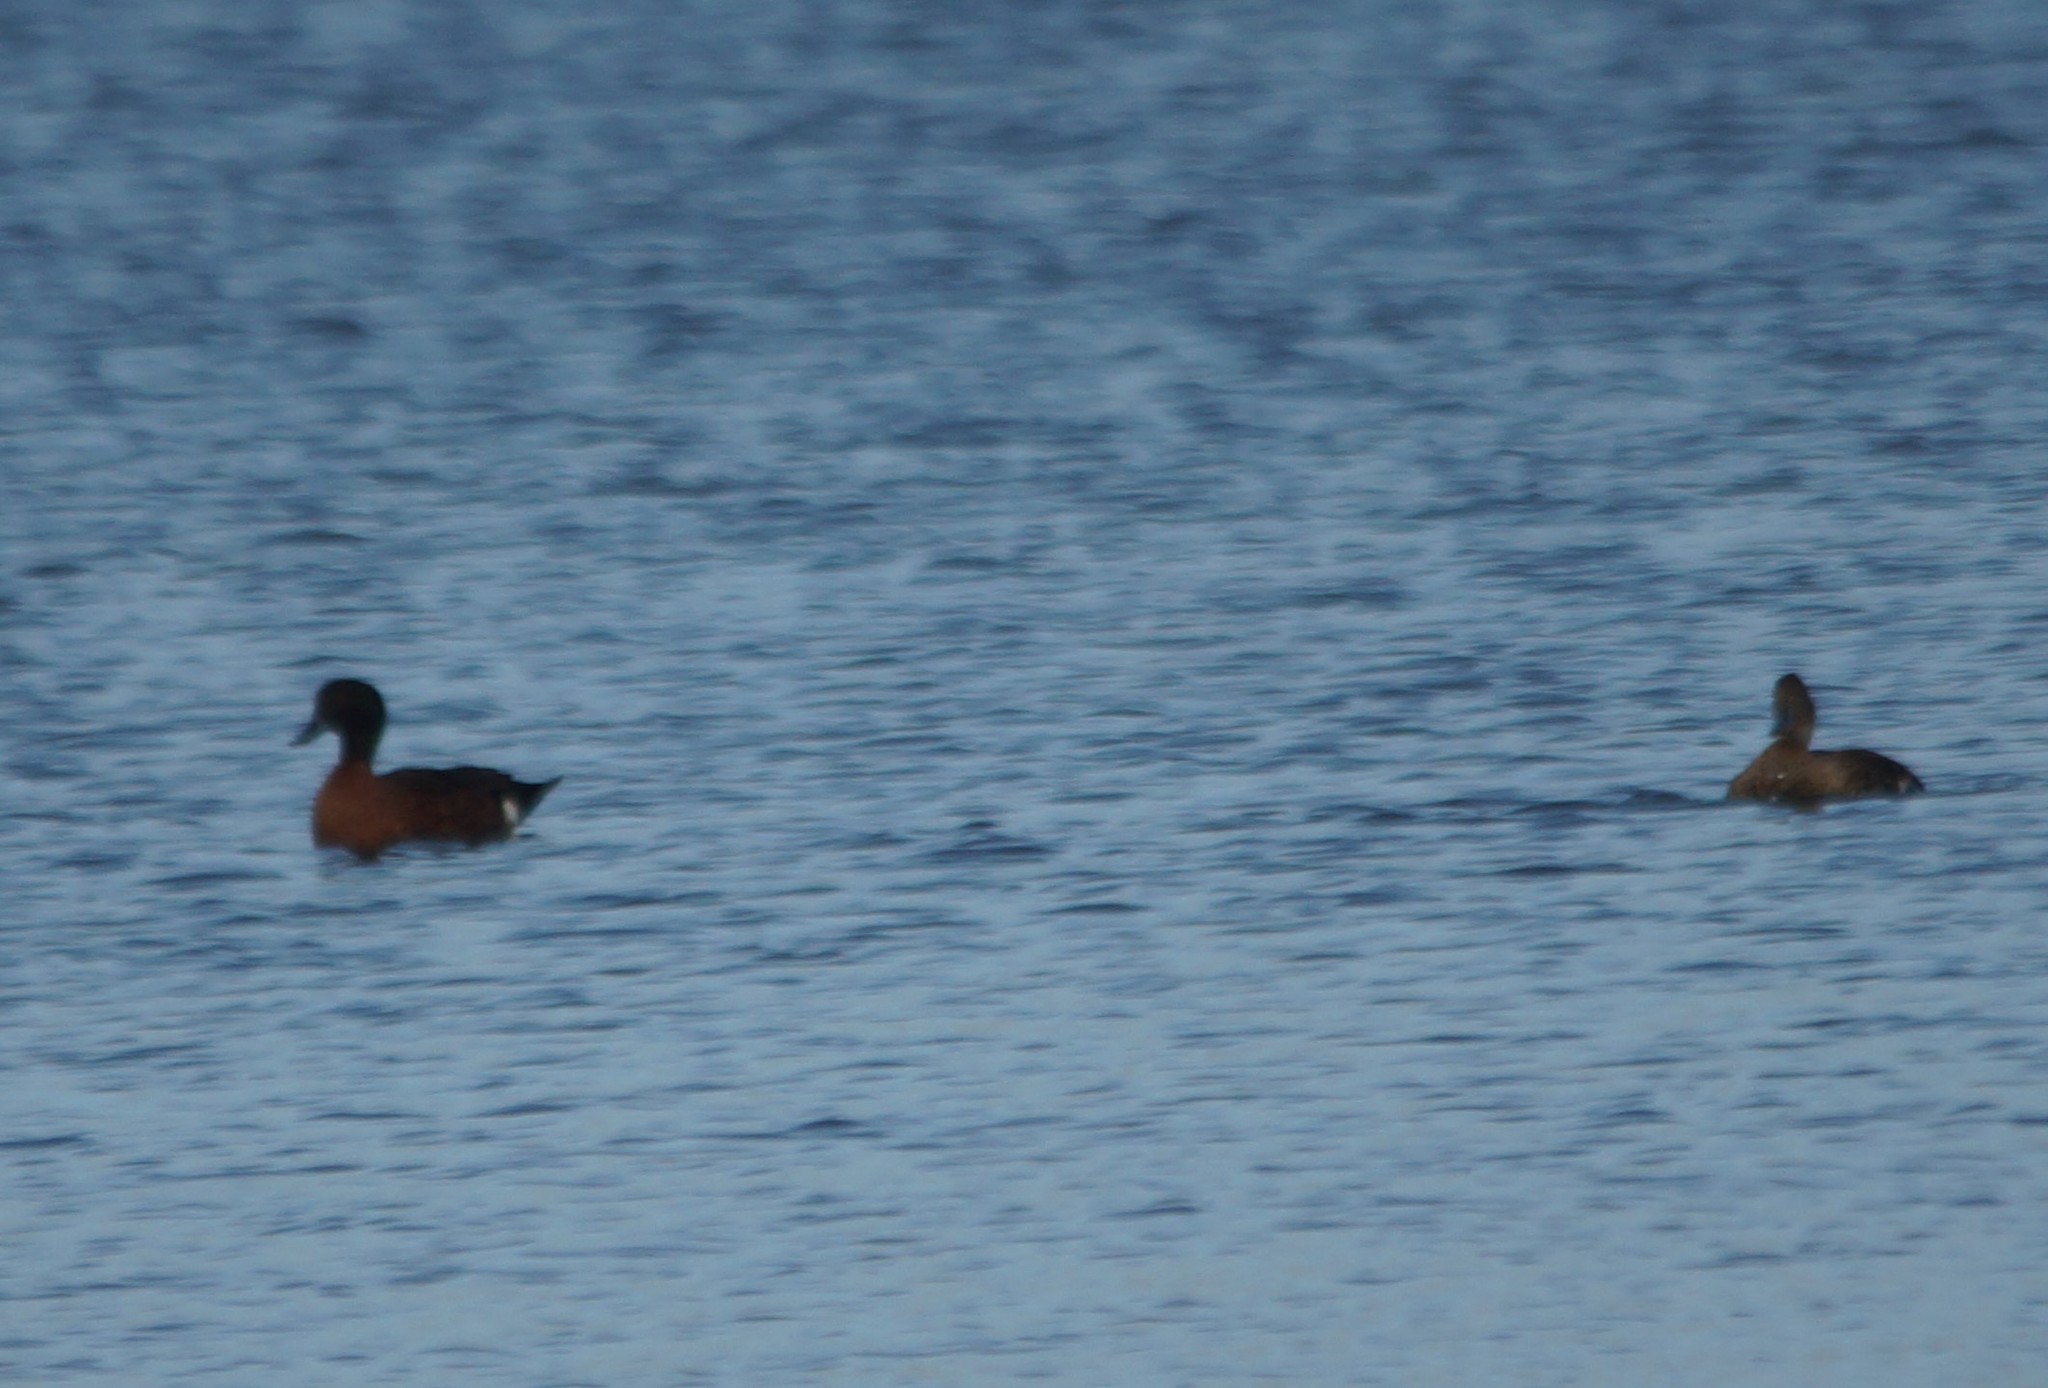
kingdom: Animalia
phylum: Chordata
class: Aves
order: Anseriformes
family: Anatidae
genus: Anas
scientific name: Anas castanea
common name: Chestnut teal
